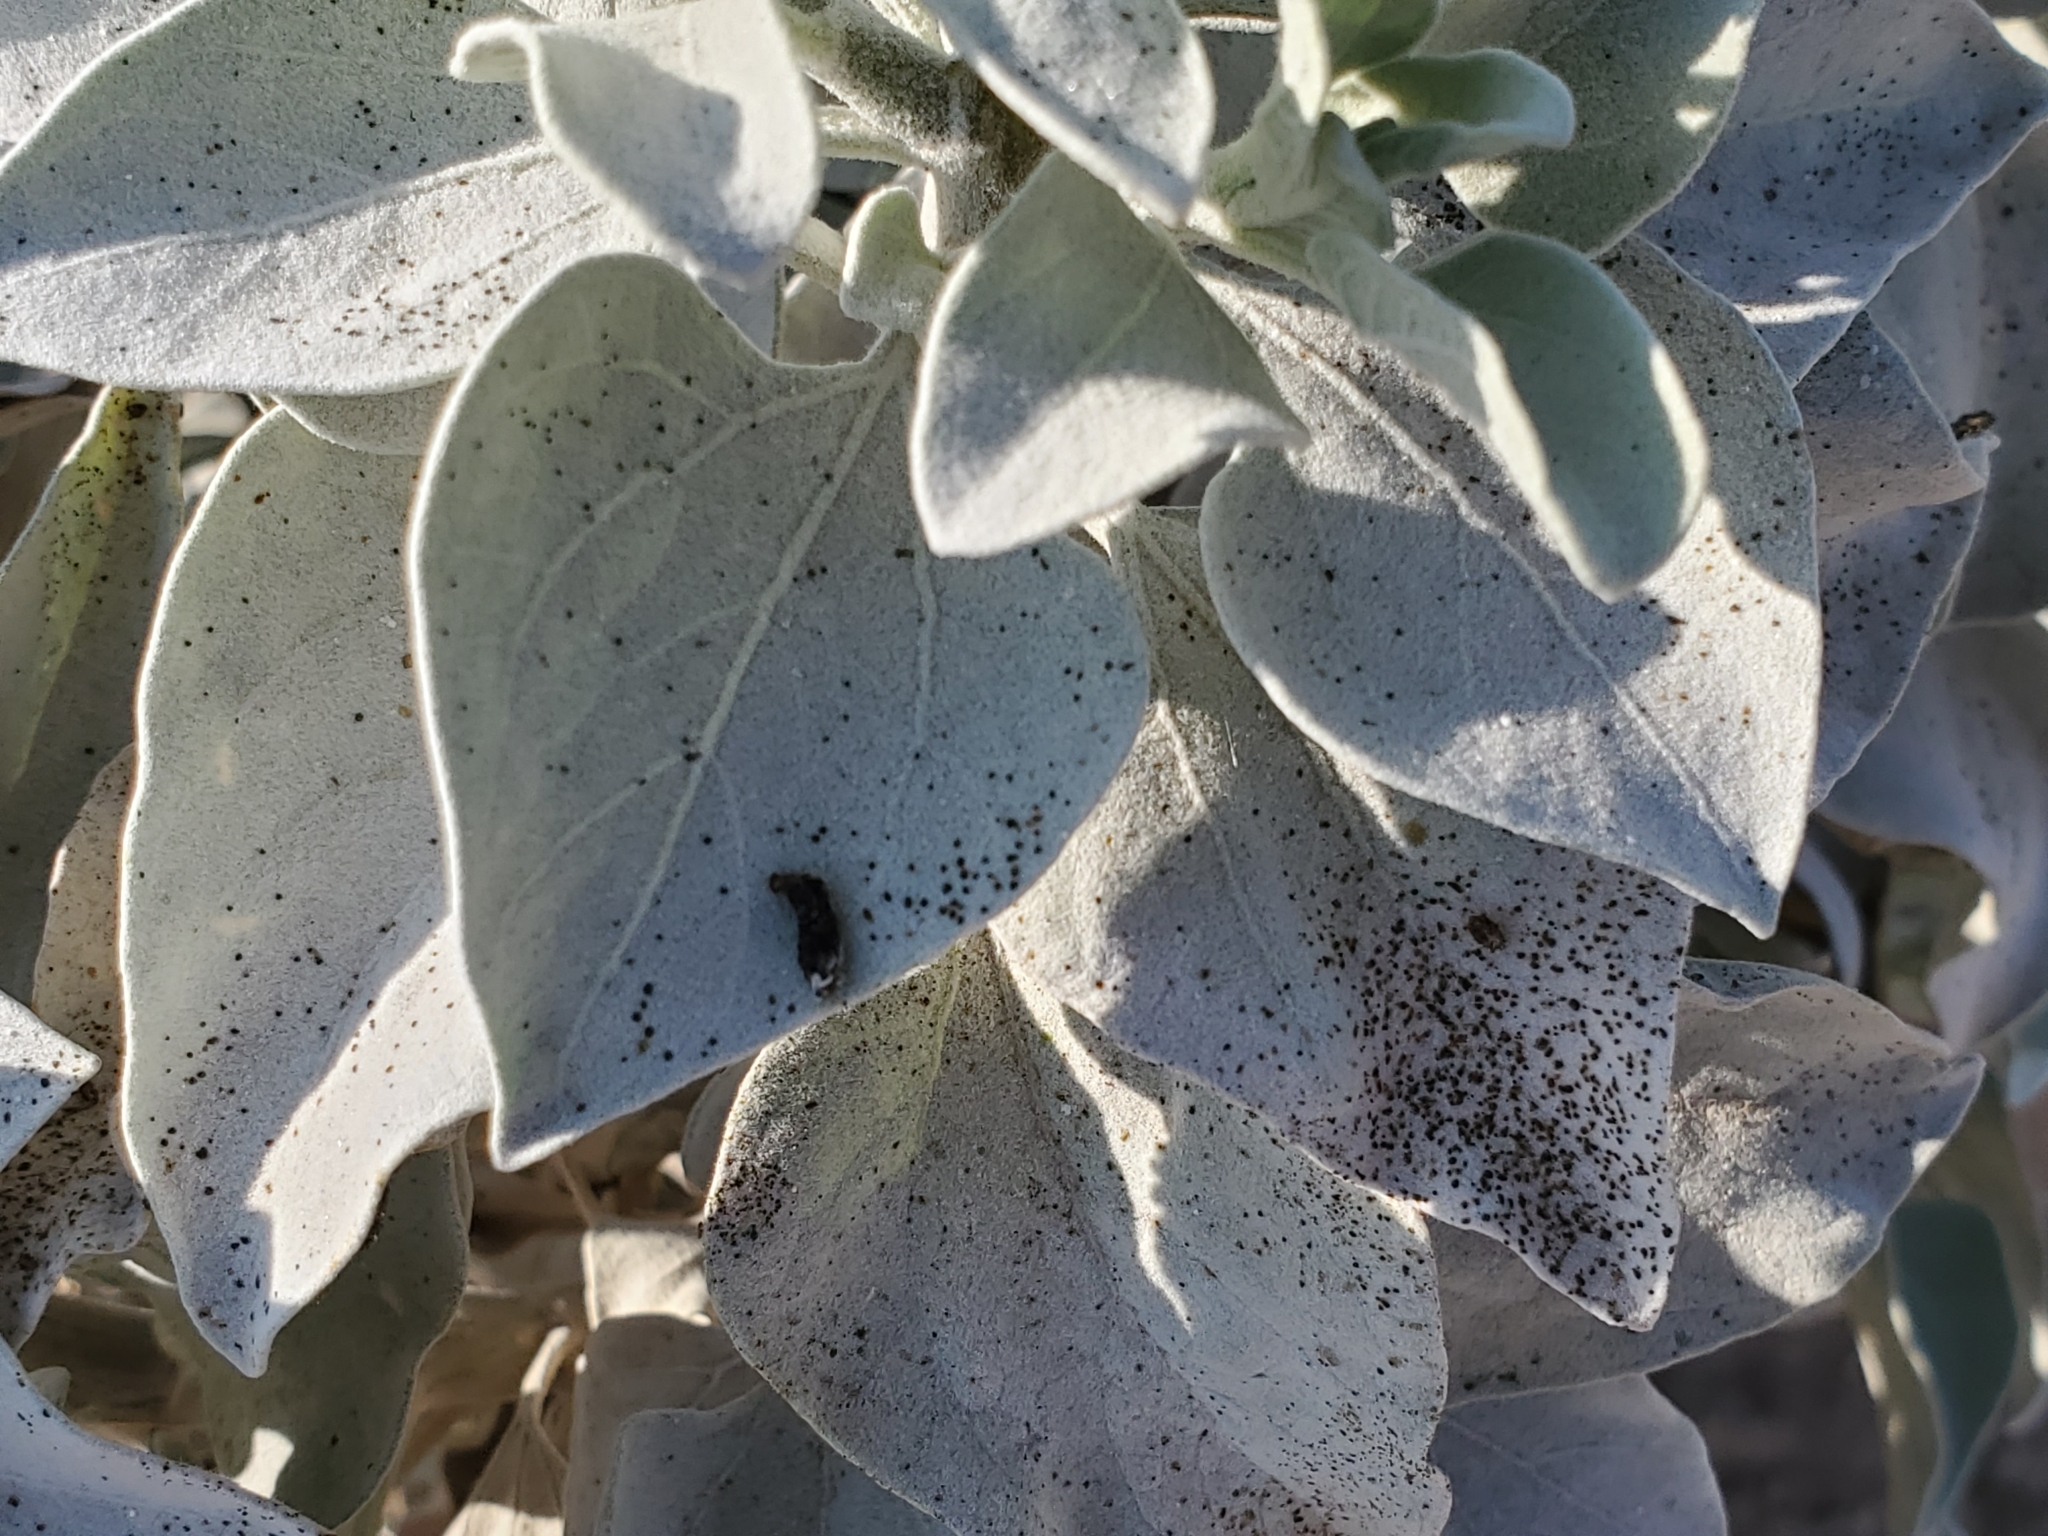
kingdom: Plantae
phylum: Tracheophyta
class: Magnoliopsida
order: Asterales
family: Asteraceae
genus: Encelia
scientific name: Encelia farinosa
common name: Brittlebush
